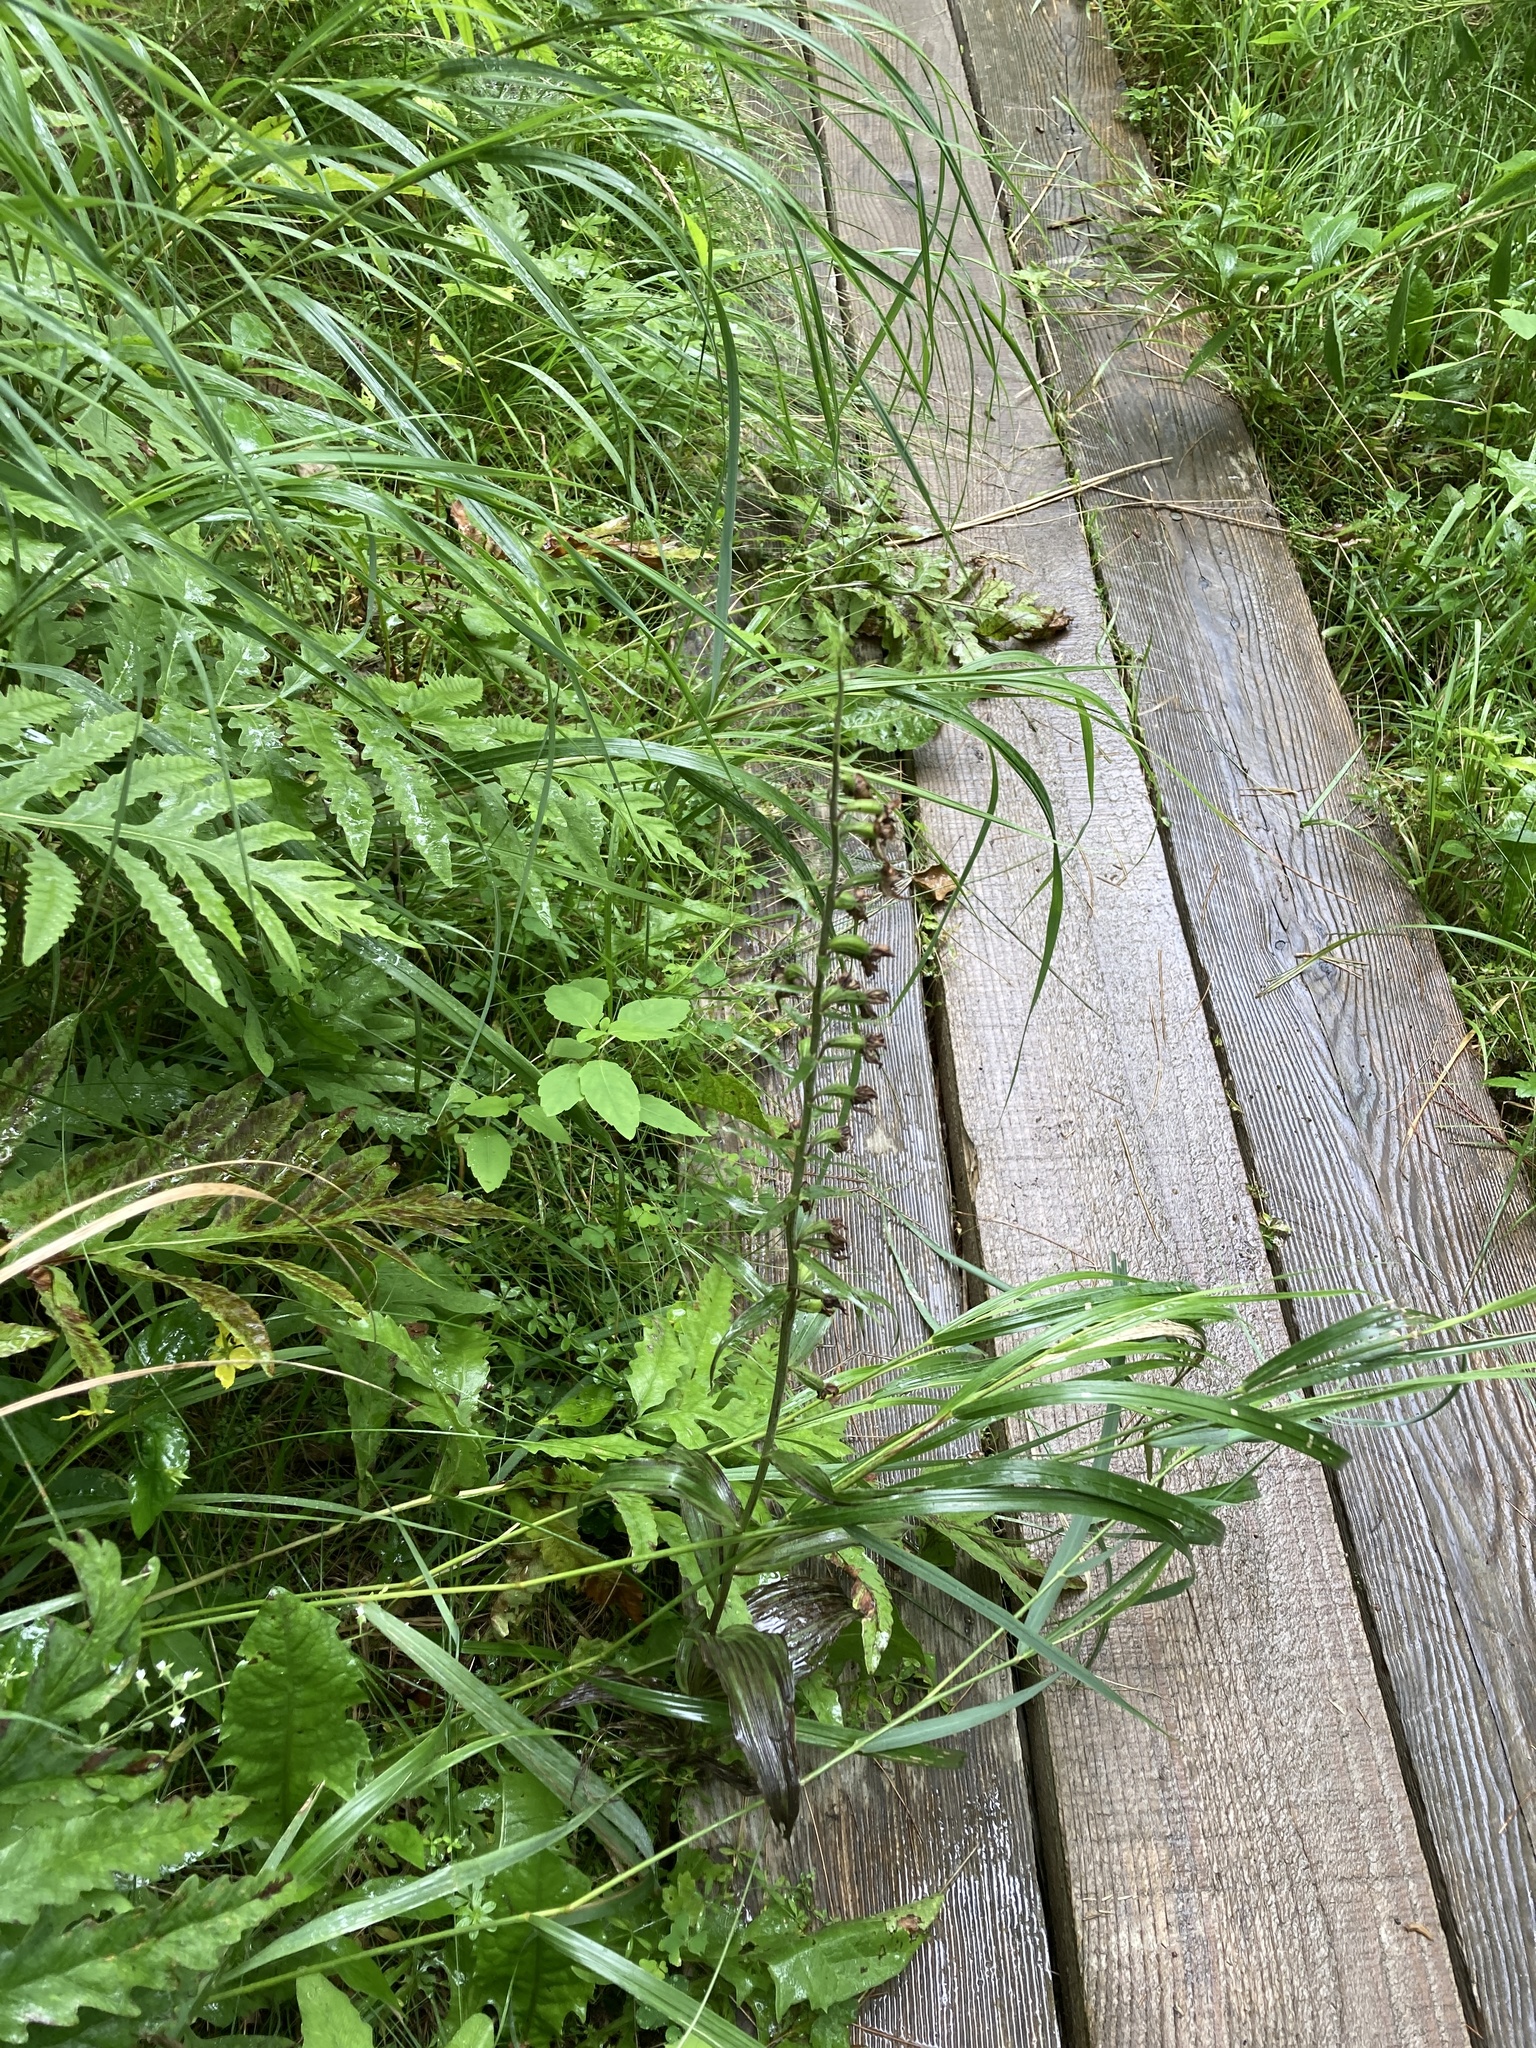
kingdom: Plantae
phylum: Tracheophyta
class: Liliopsida
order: Asparagales
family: Orchidaceae
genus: Epipactis
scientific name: Epipactis helleborine
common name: Broad-leaved helleborine
